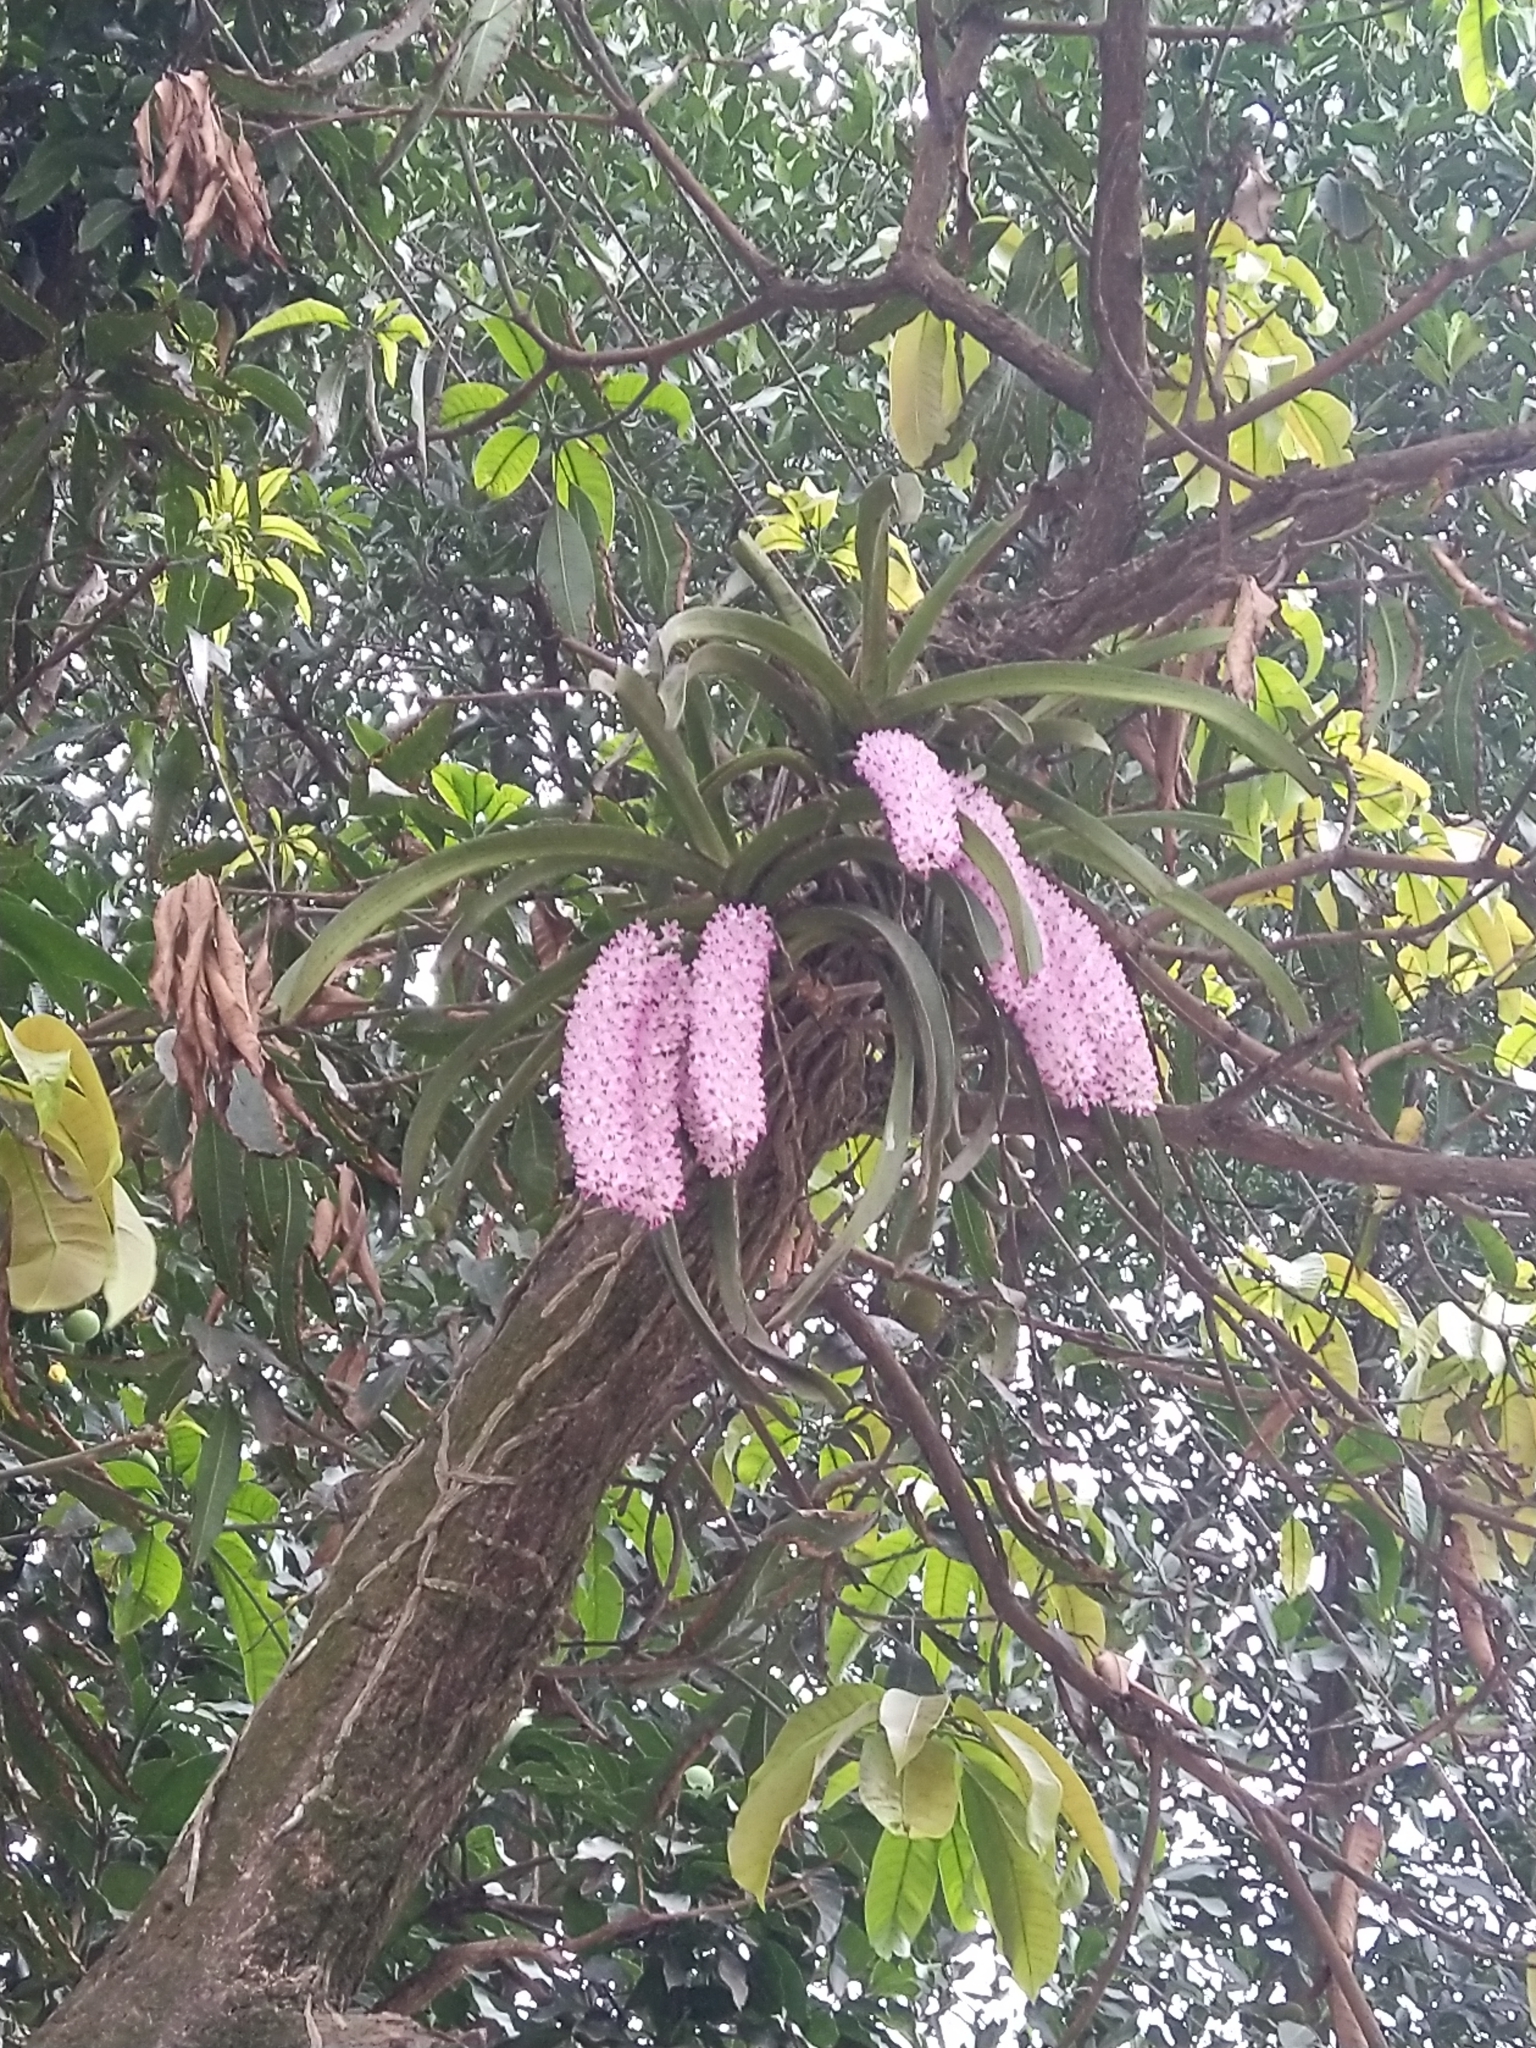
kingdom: Plantae
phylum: Tracheophyta
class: Liliopsida
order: Asparagales
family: Orchidaceae
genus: Rhynchostylis
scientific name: Rhynchostylis retusa
